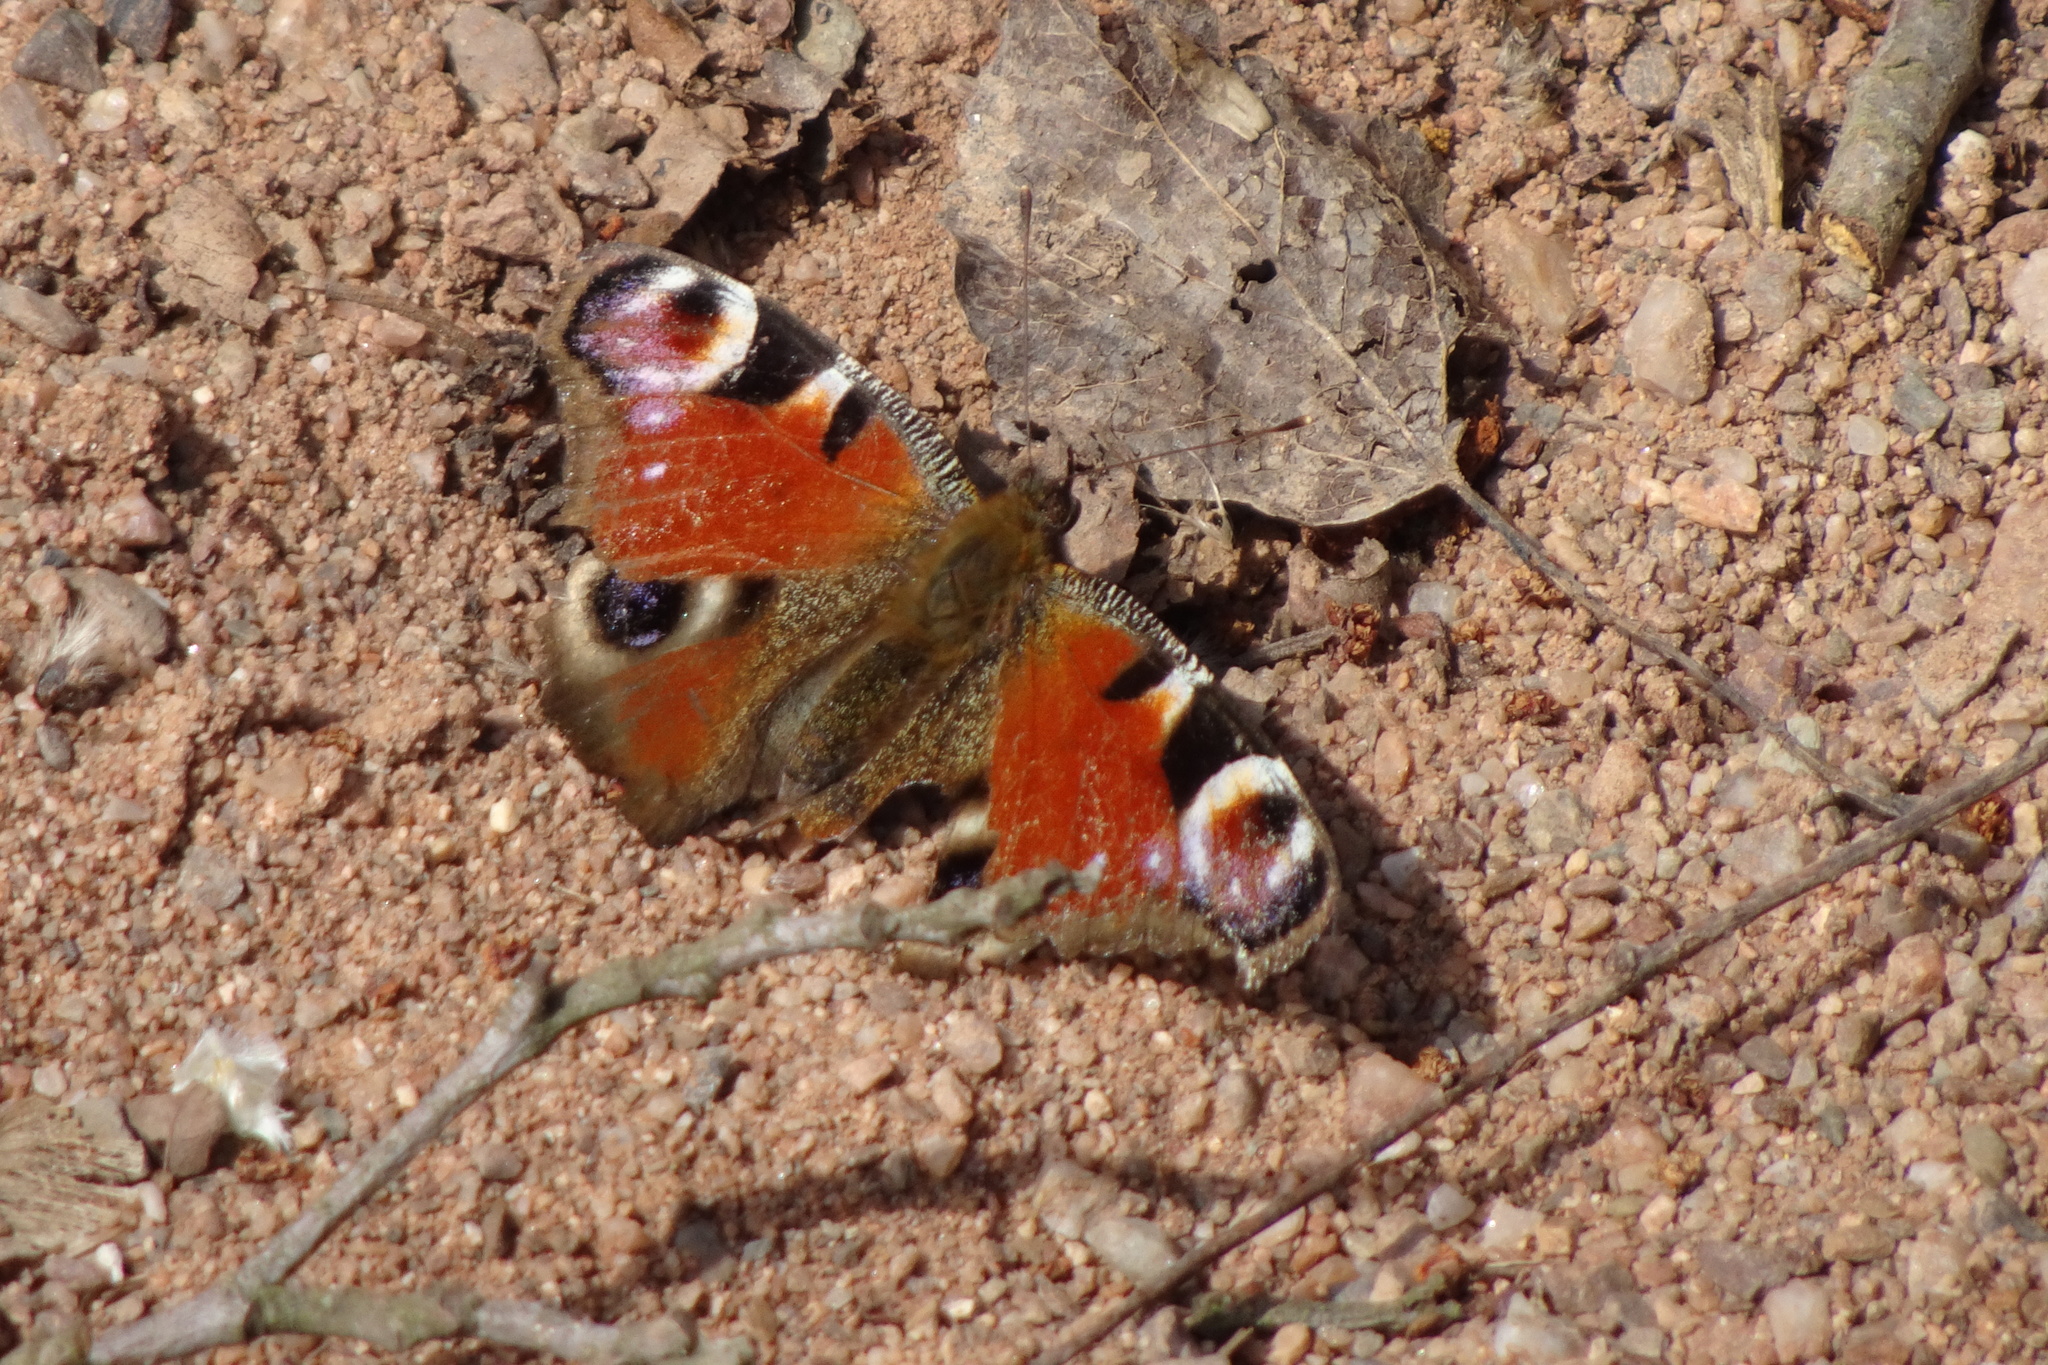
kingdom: Animalia
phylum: Arthropoda
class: Insecta
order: Lepidoptera
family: Nymphalidae
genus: Aglais
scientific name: Aglais io
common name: Peacock
